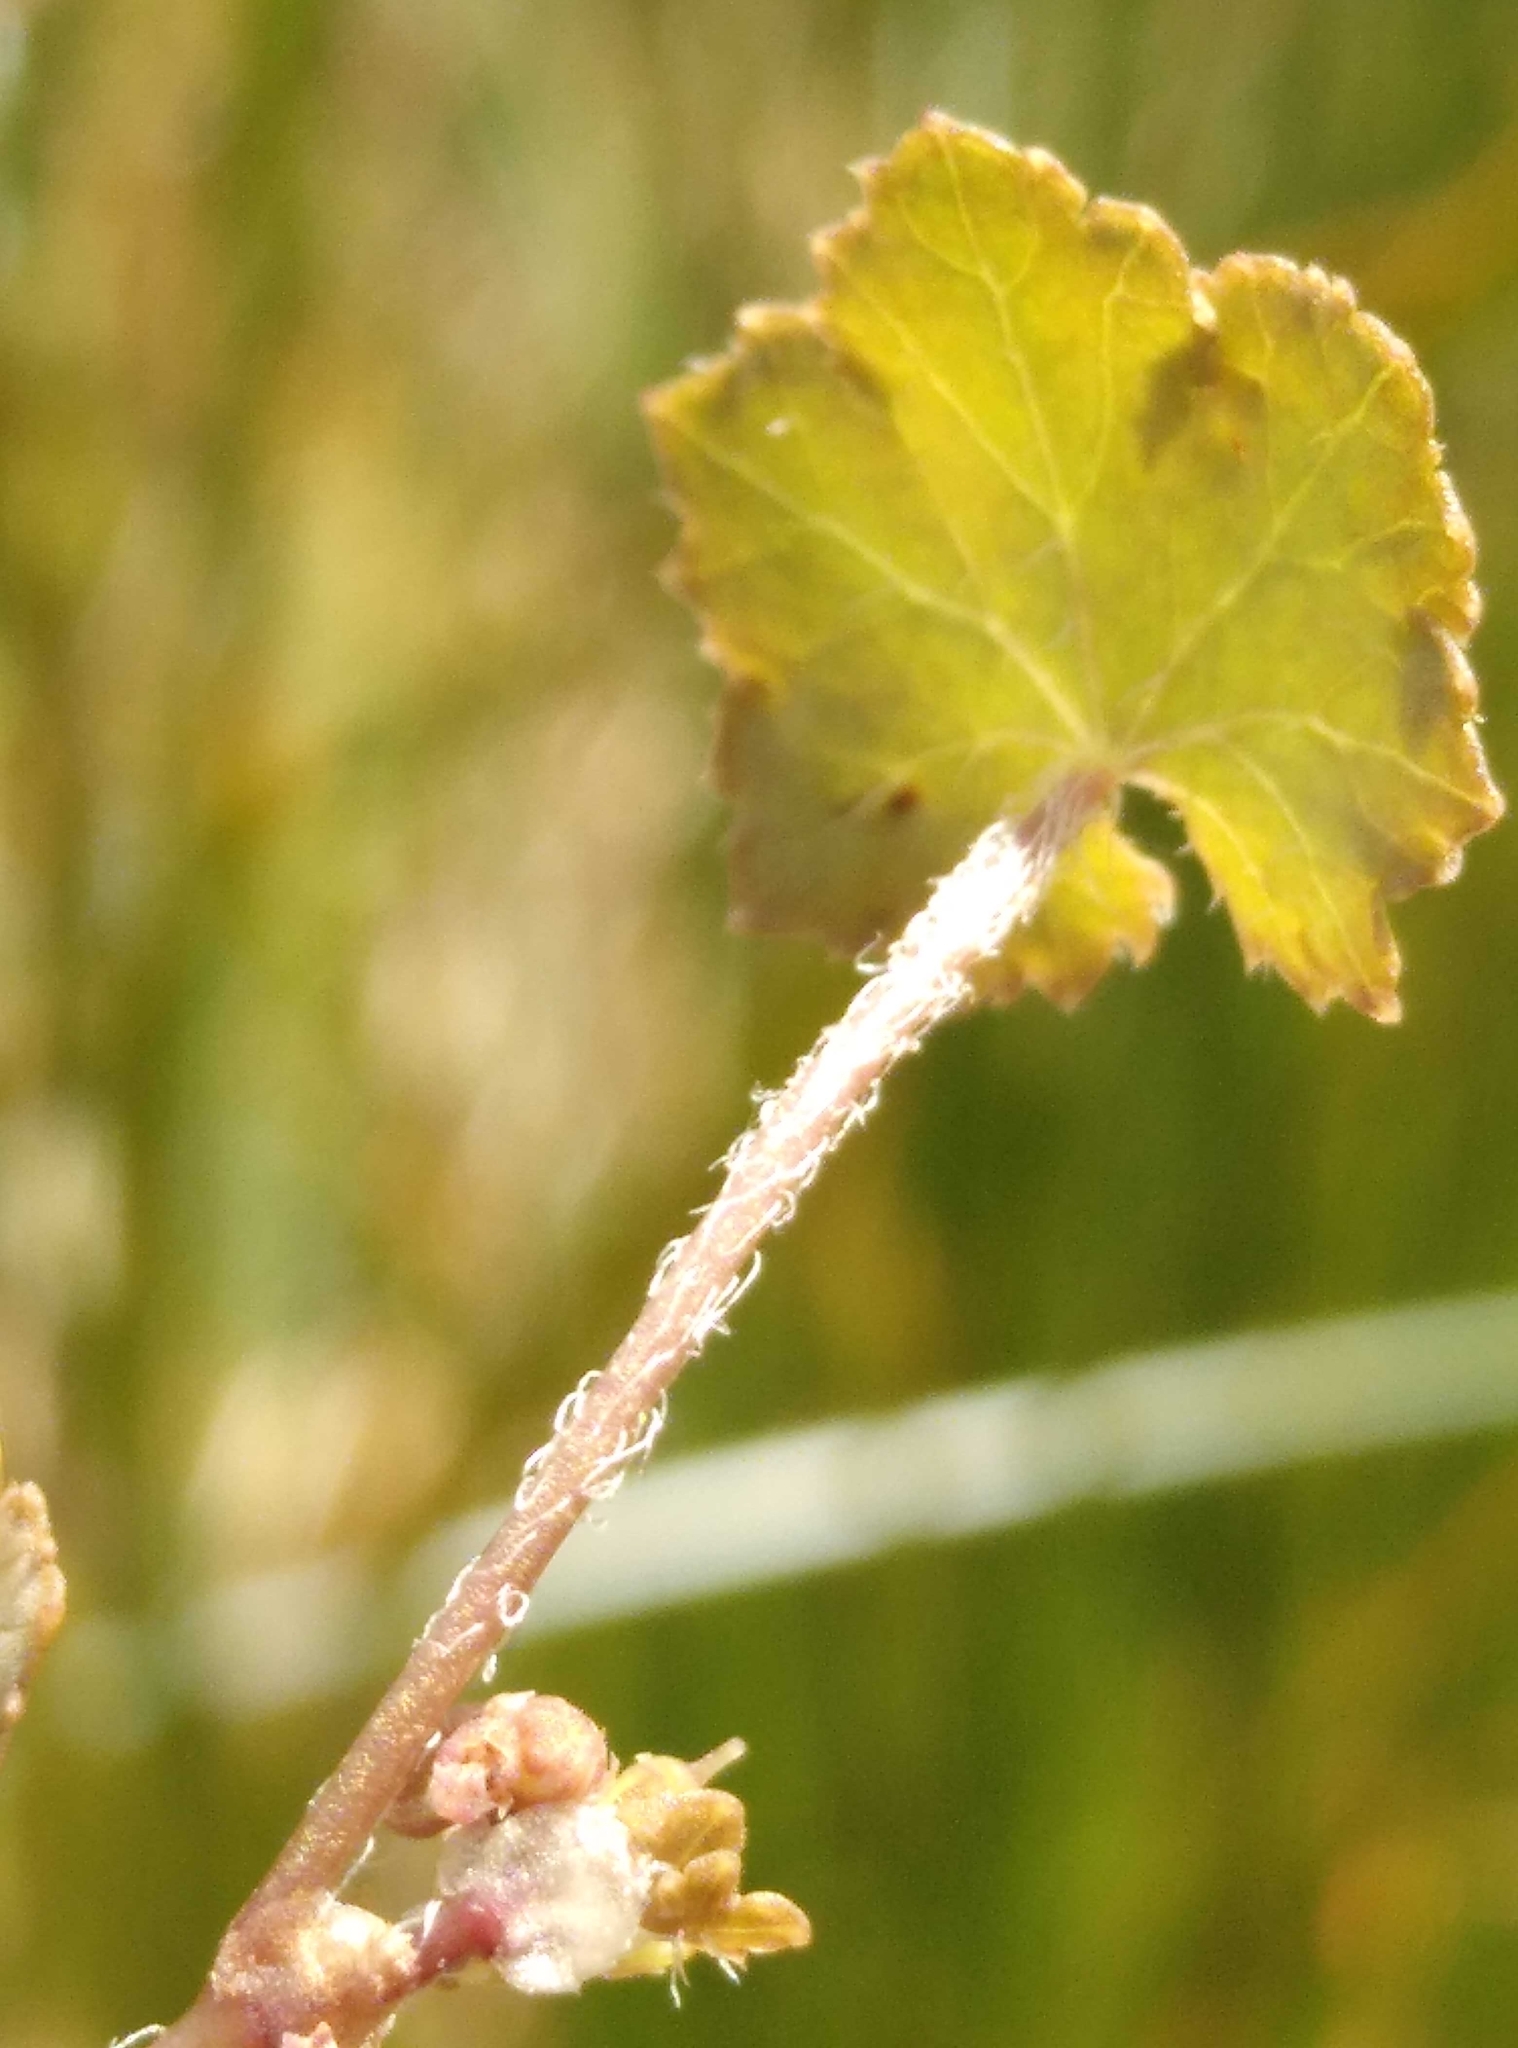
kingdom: Plantae
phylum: Tracheophyta
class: Magnoliopsida
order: Apiales
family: Araliaceae
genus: Hydrocotyle
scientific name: Hydrocotyle novae-zeelandiae
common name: New zealand pennywort
